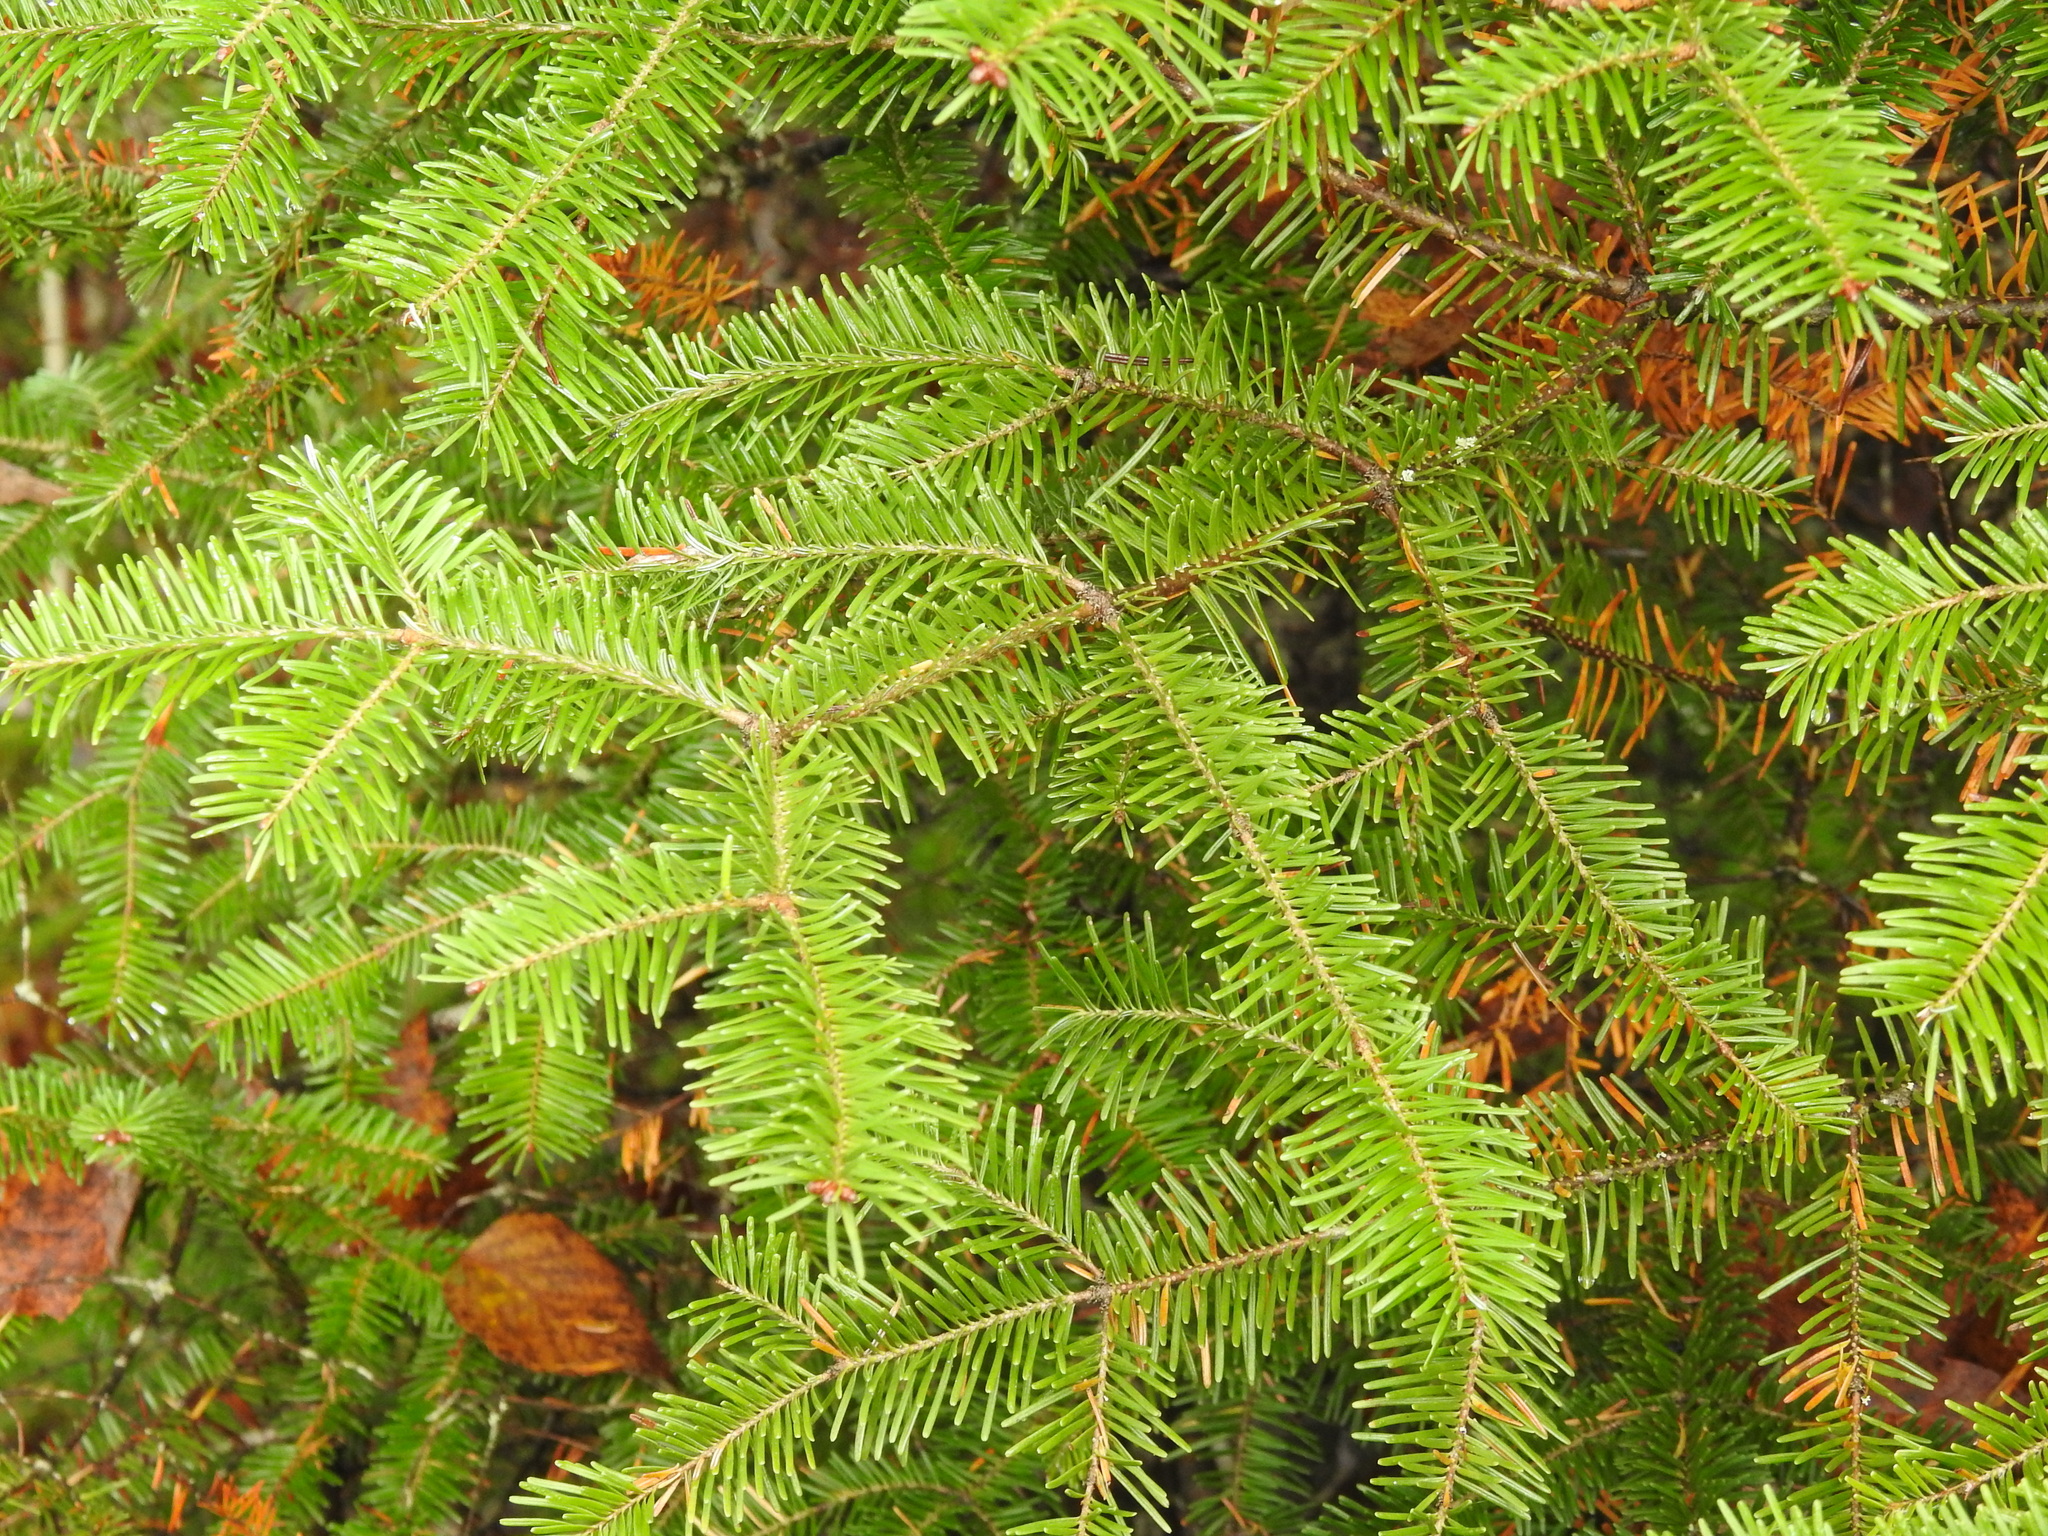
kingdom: Plantae
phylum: Tracheophyta
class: Pinopsida
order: Pinales
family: Pinaceae
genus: Abies
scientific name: Abies balsamea
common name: Balsam fir
